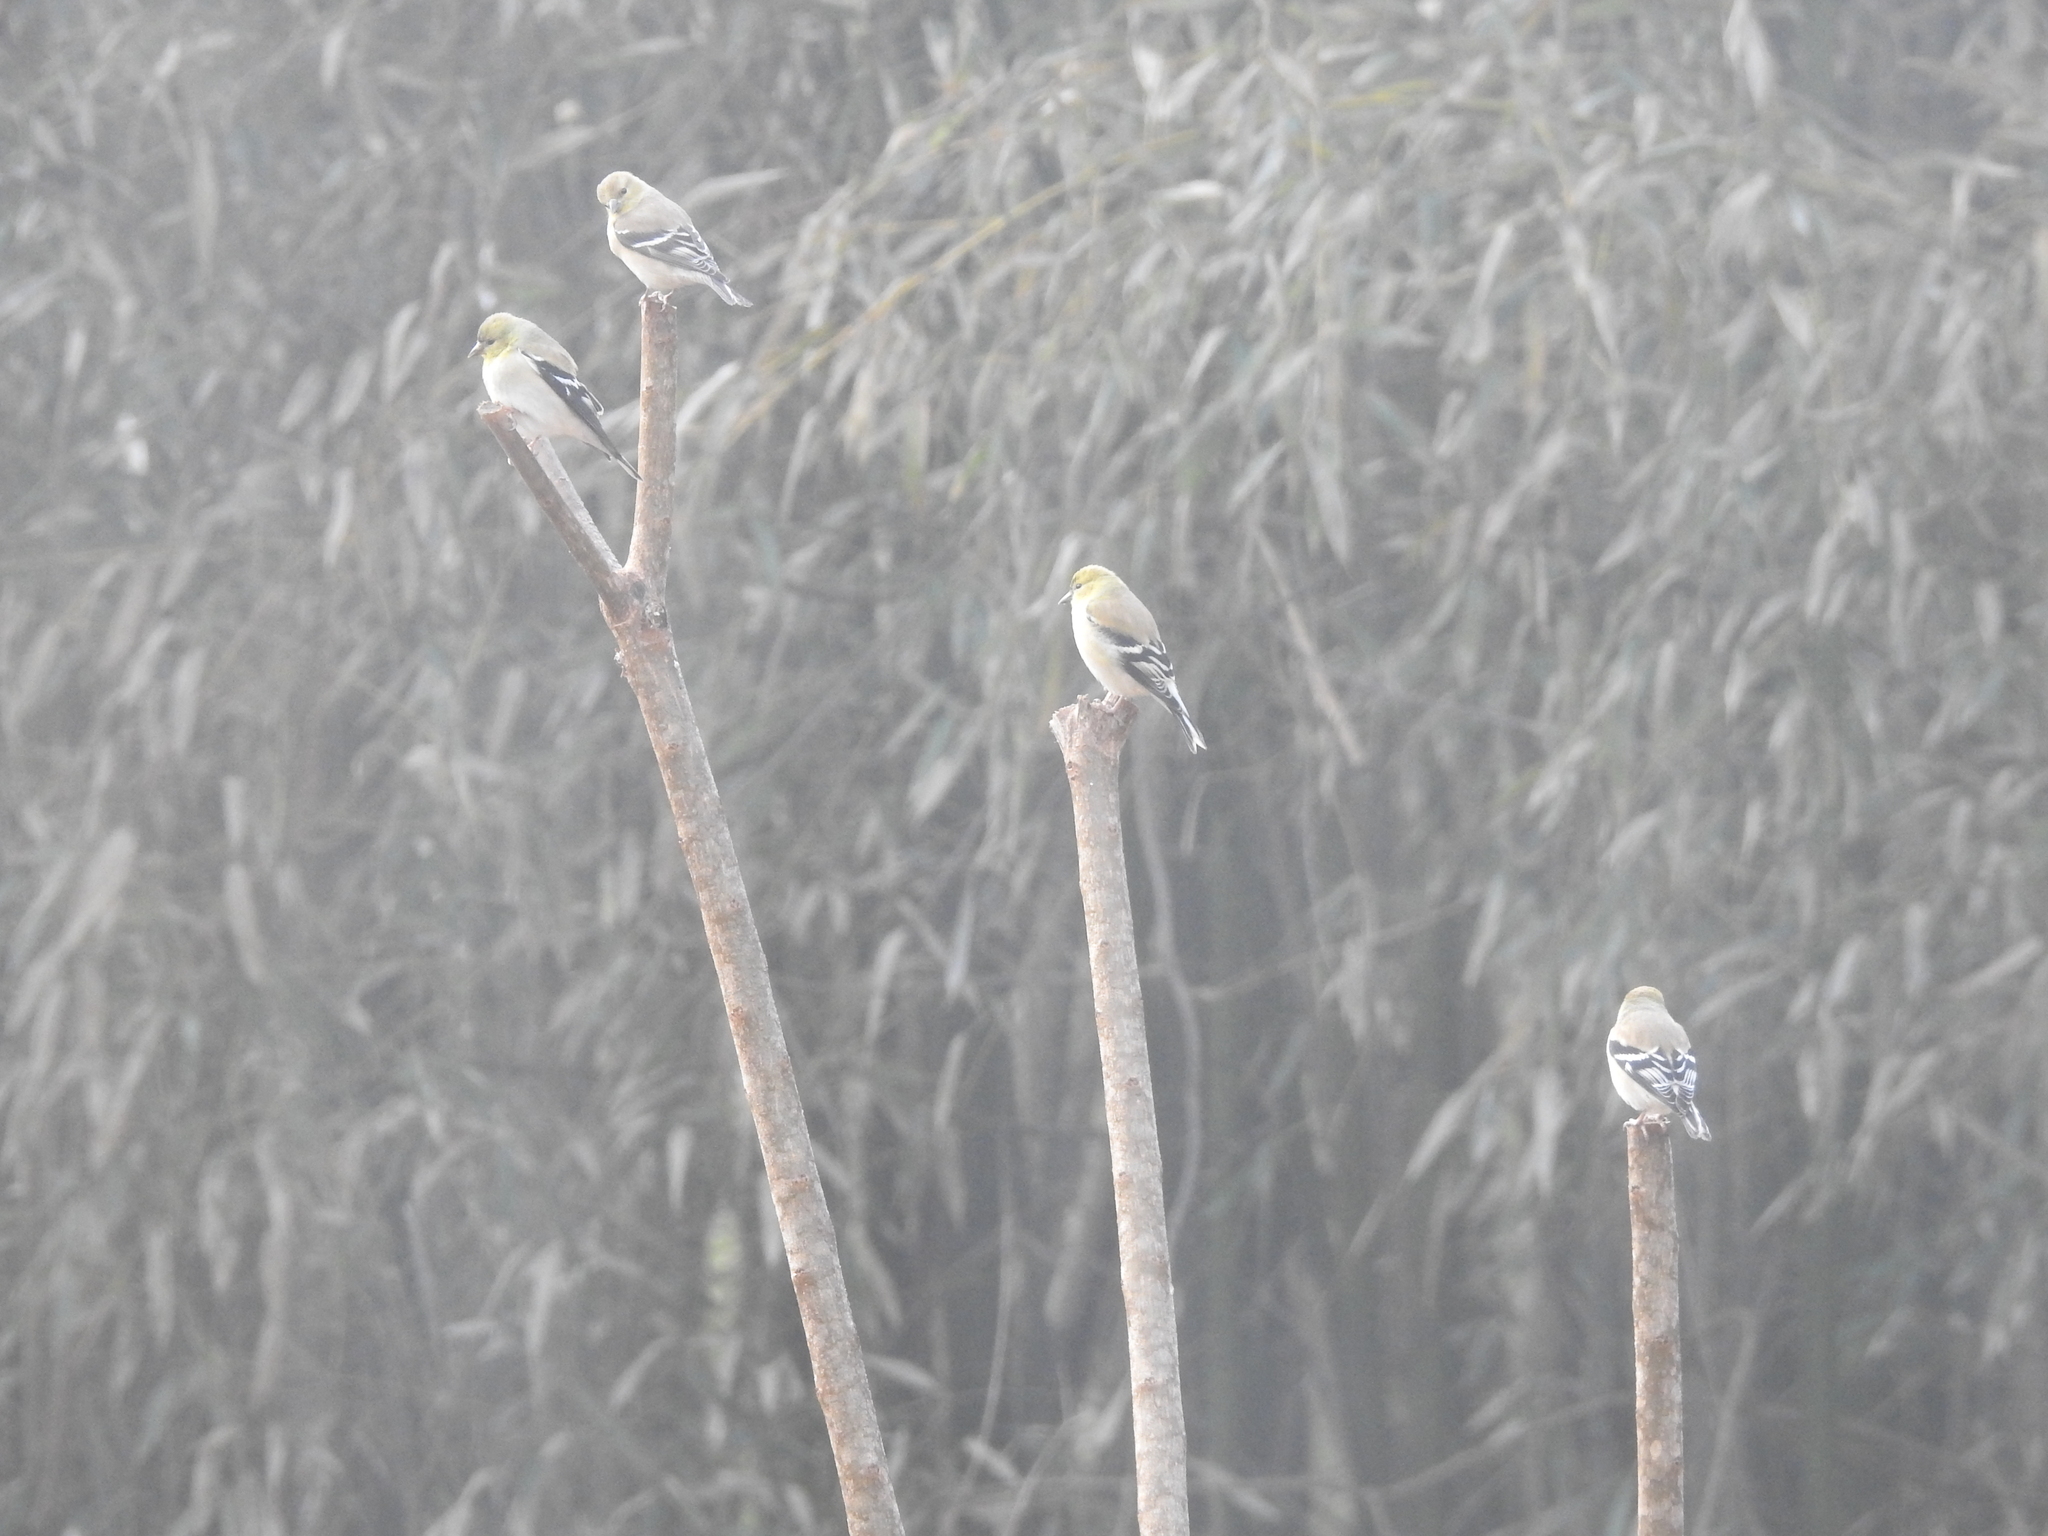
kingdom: Animalia
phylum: Chordata
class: Aves
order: Passeriformes
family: Fringillidae
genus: Spinus
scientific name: Spinus tristis
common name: American goldfinch
